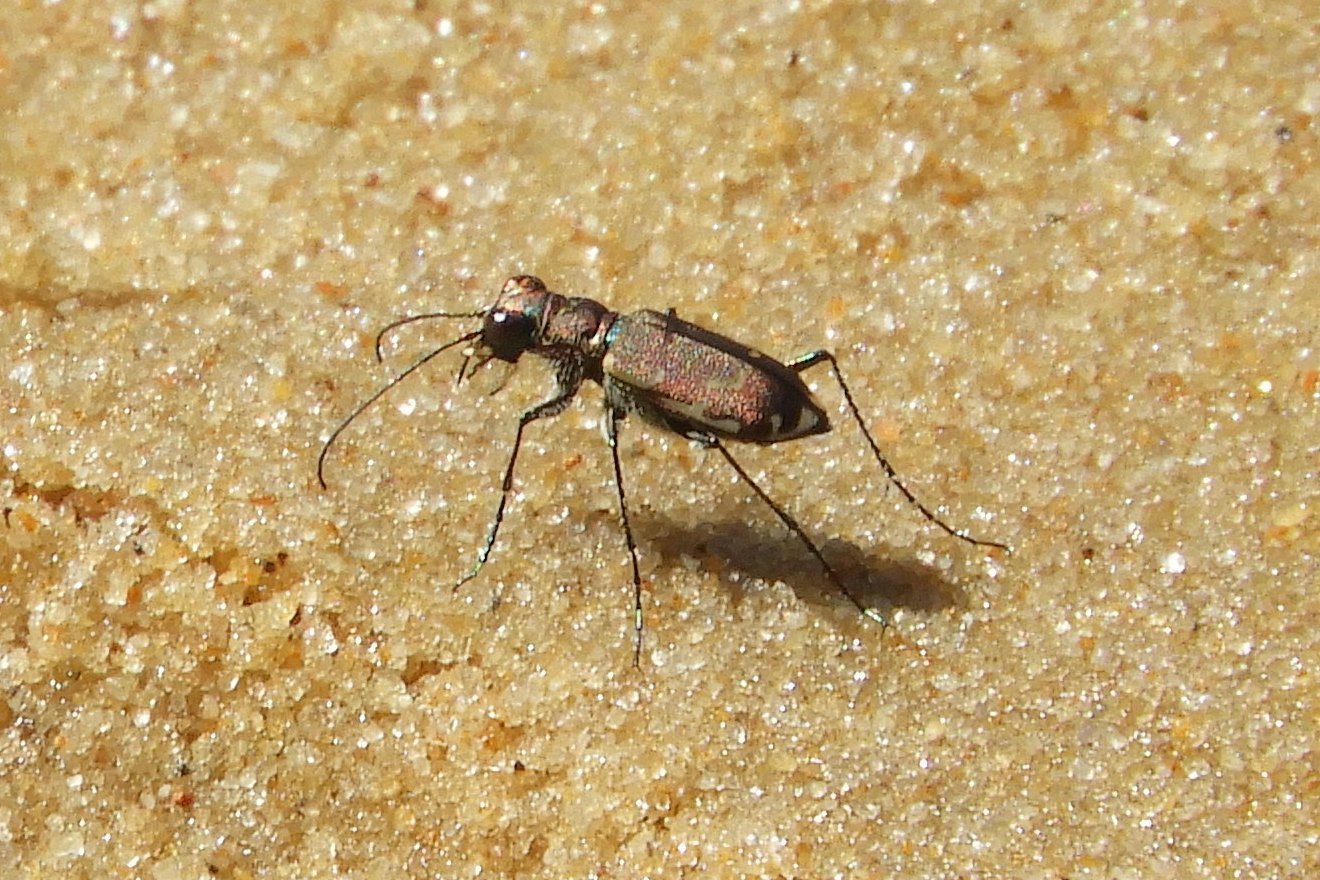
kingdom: Animalia
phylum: Arthropoda
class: Insecta
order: Coleoptera
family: Carabidae
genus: Cicindela
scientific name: Cicindela repanda
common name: Bronzed tiger beetle
